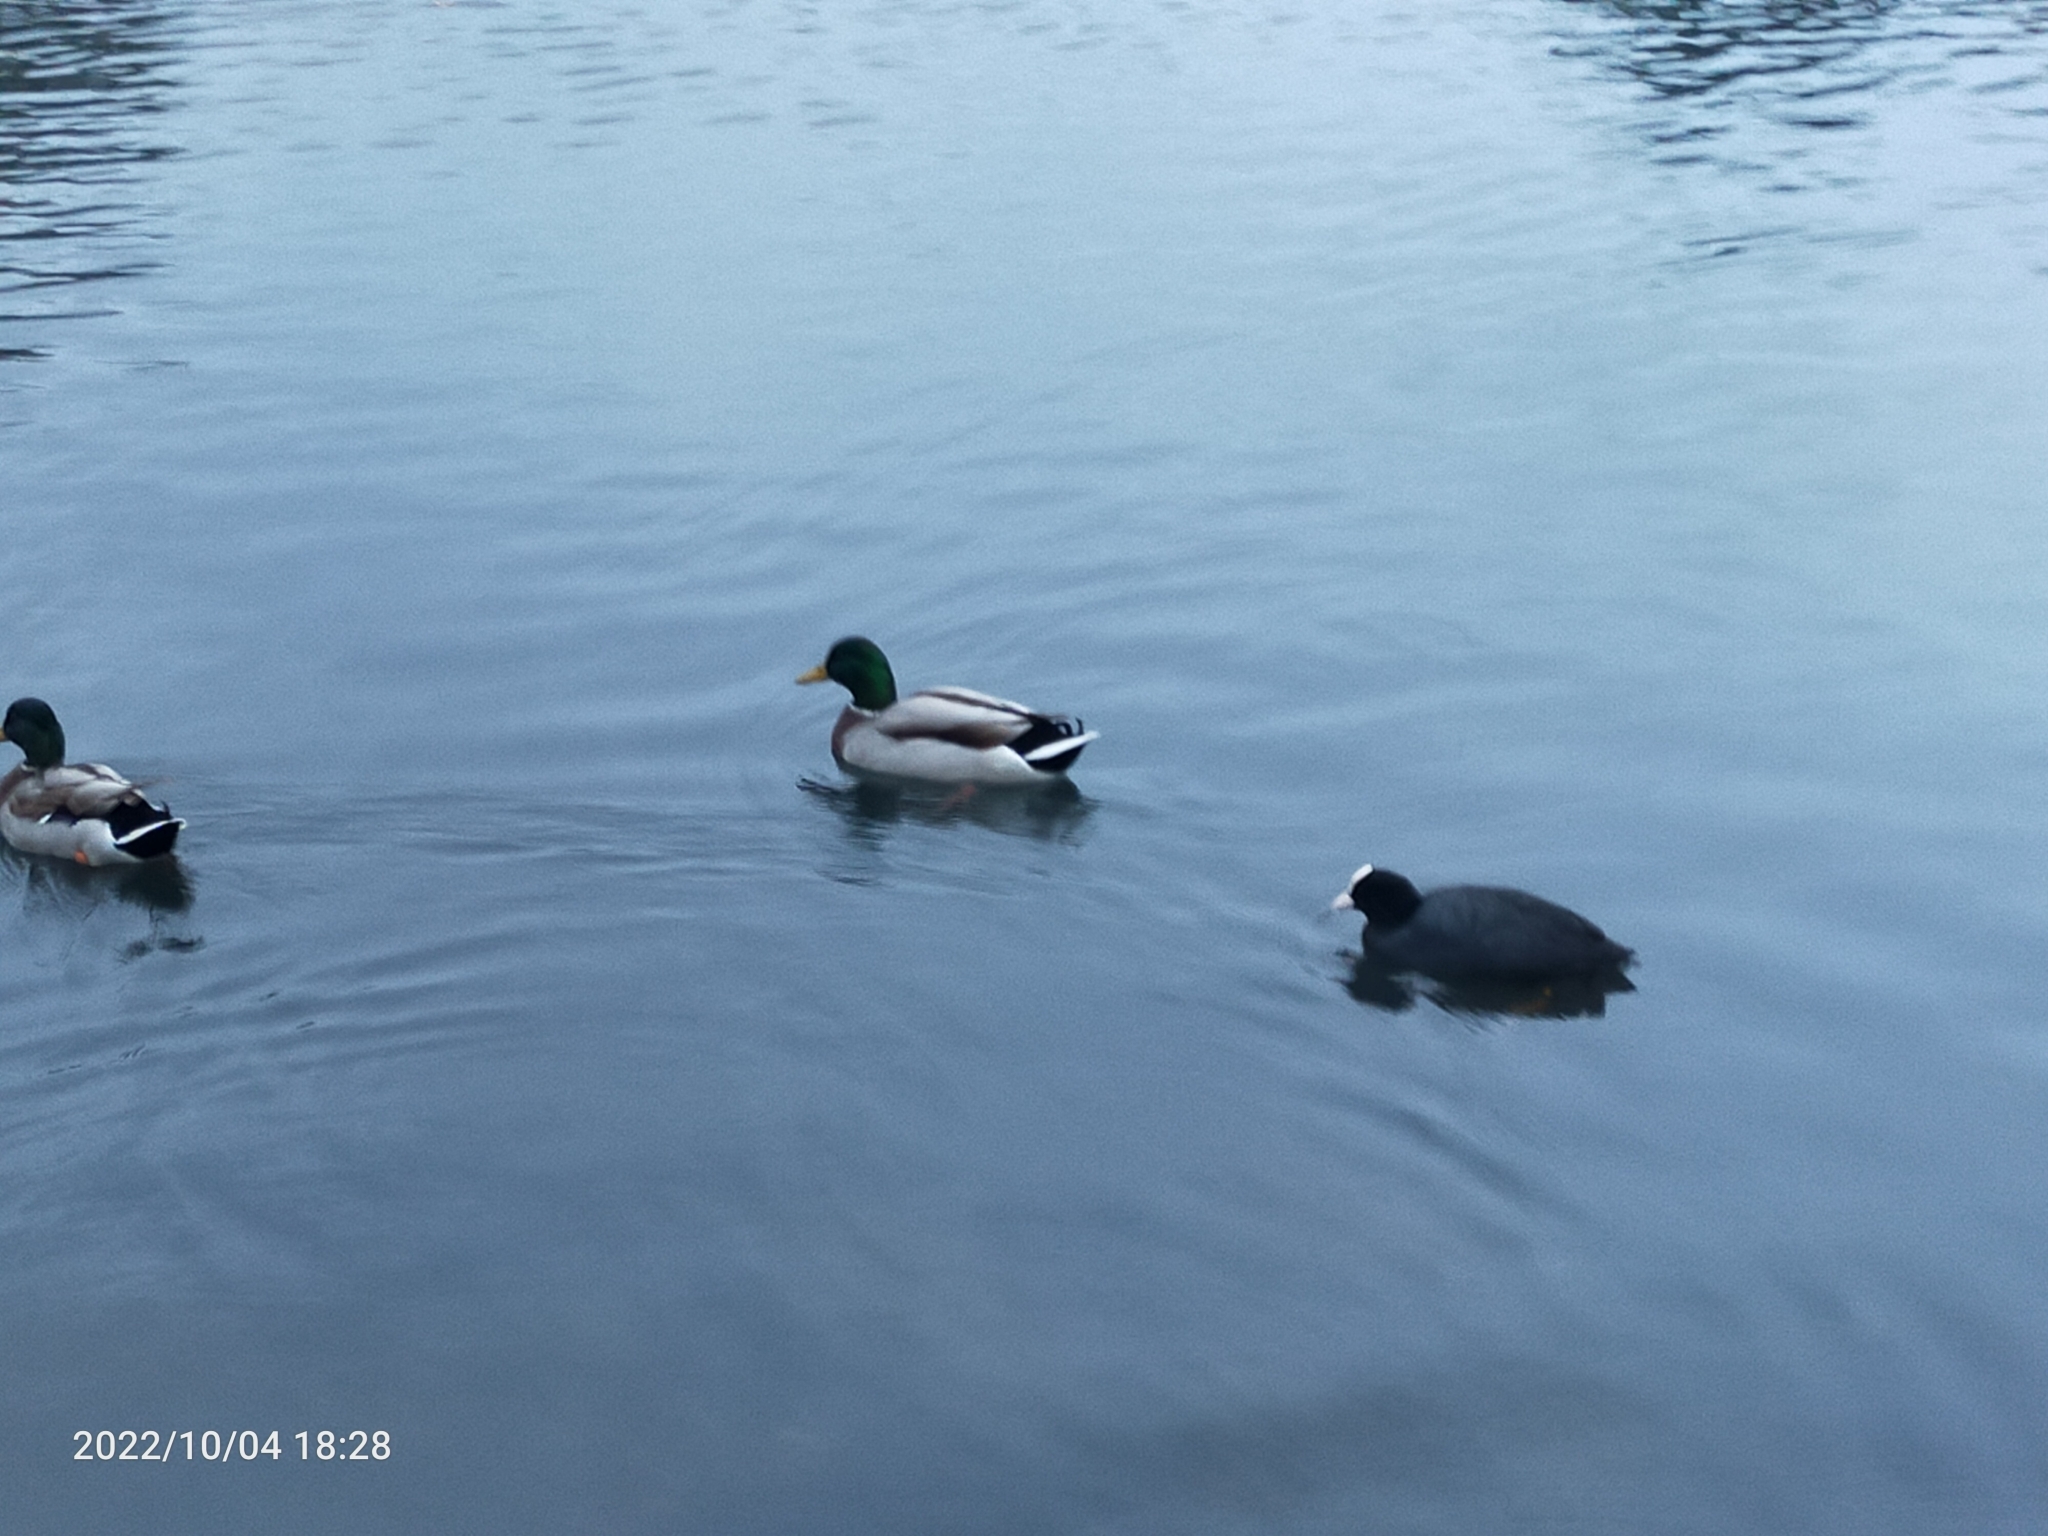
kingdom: Animalia
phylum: Chordata
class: Aves
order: Anseriformes
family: Anatidae
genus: Anas
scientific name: Anas platyrhynchos
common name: Mallard
